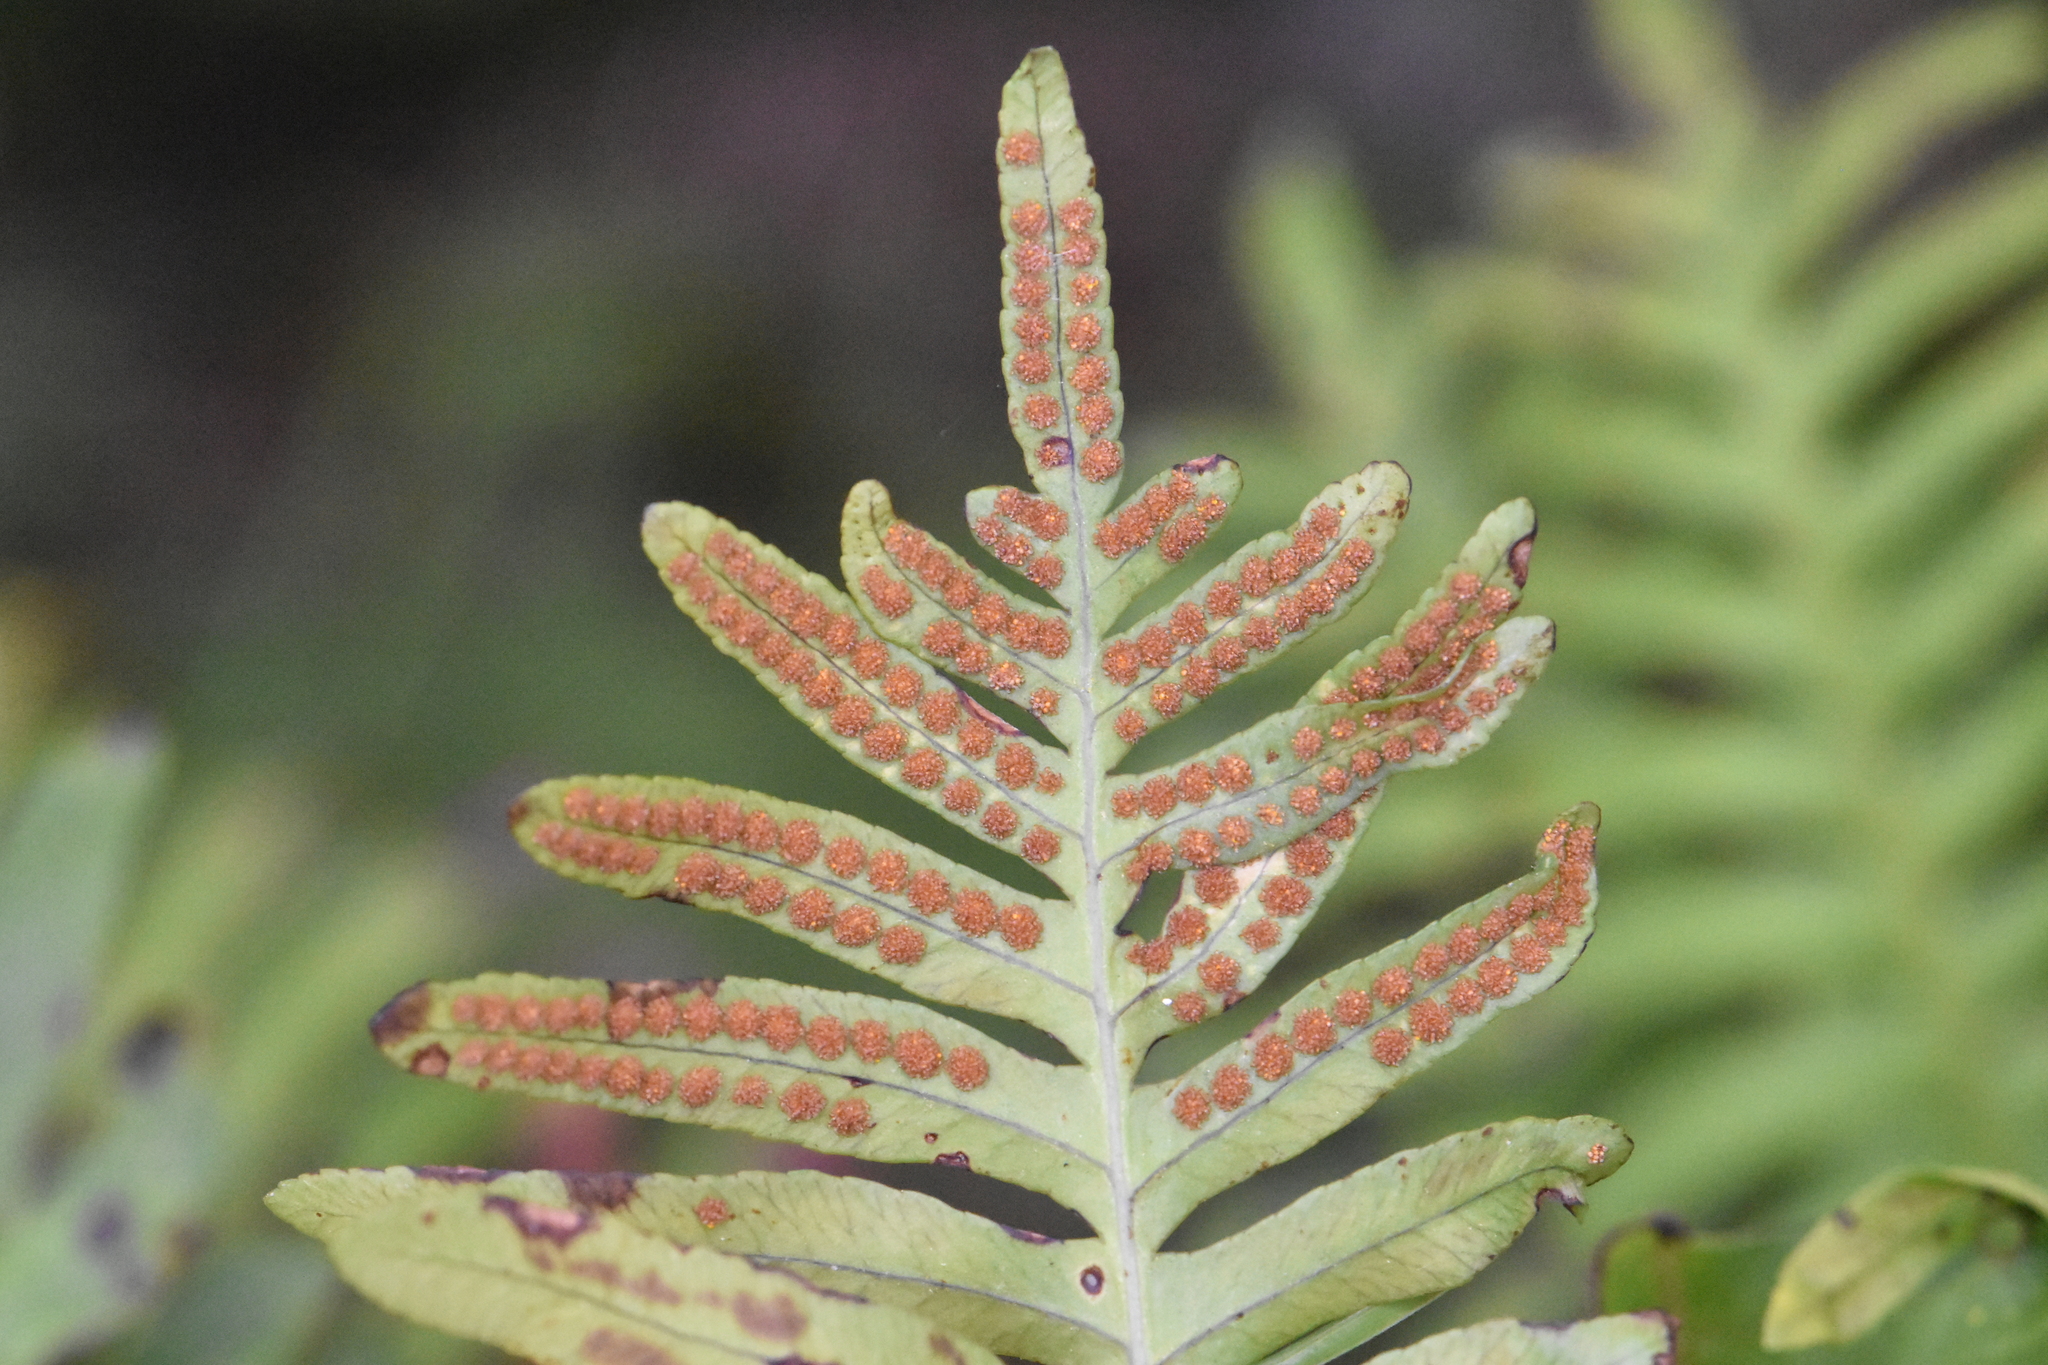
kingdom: Plantae
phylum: Tracheophyta
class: Polypodiopsida
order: Polypodiales
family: Polypodiaceae
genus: Polypodium
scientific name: Polypodium cambricum
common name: Southern polypody
